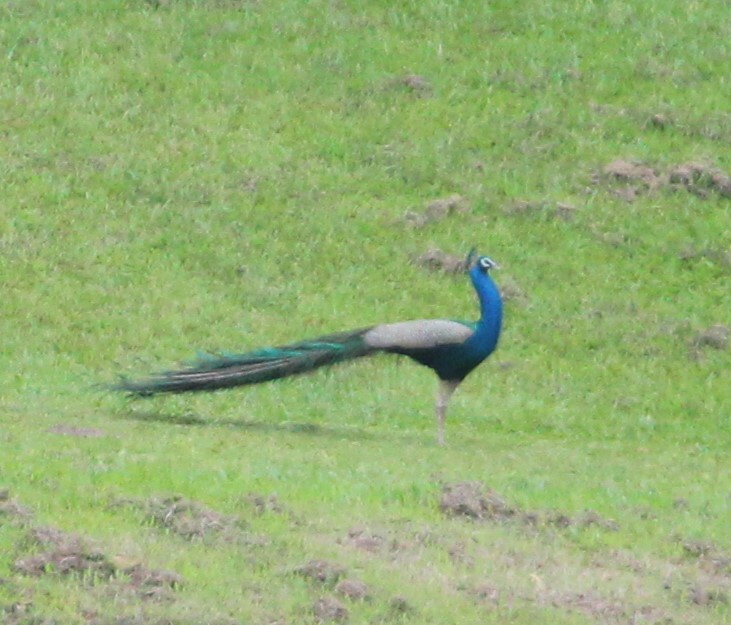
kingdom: Animalia
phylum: Chordata
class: Aves
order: Galliformes
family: Phasianidae
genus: Pavo
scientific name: Pavo cristatus
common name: Indian peafowl
